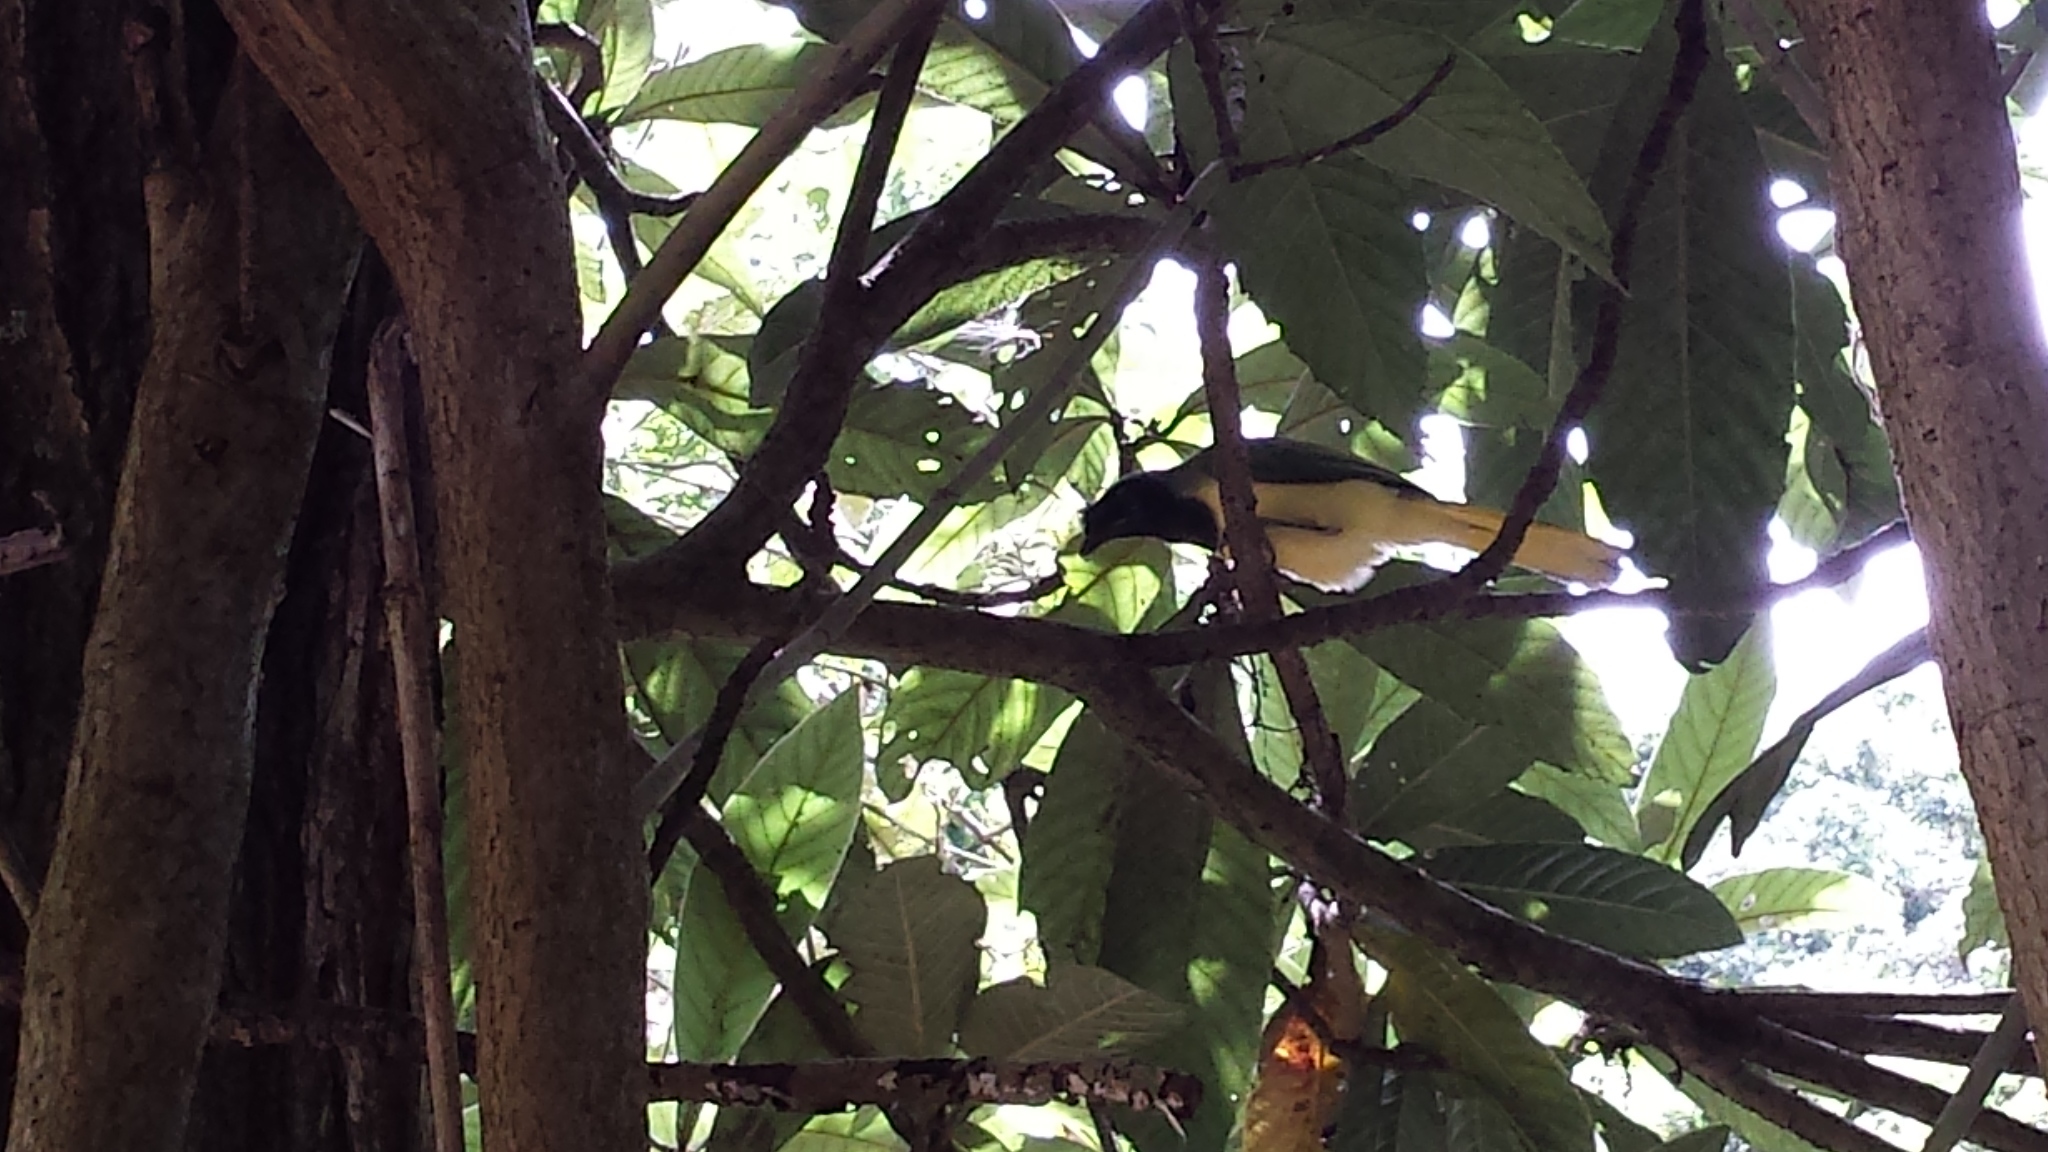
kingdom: Animalia
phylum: Chordata
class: Aves
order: Passeriformes
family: Corvidae
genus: Cyanocorax
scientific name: Cyanocorax yncas
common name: Green jay
